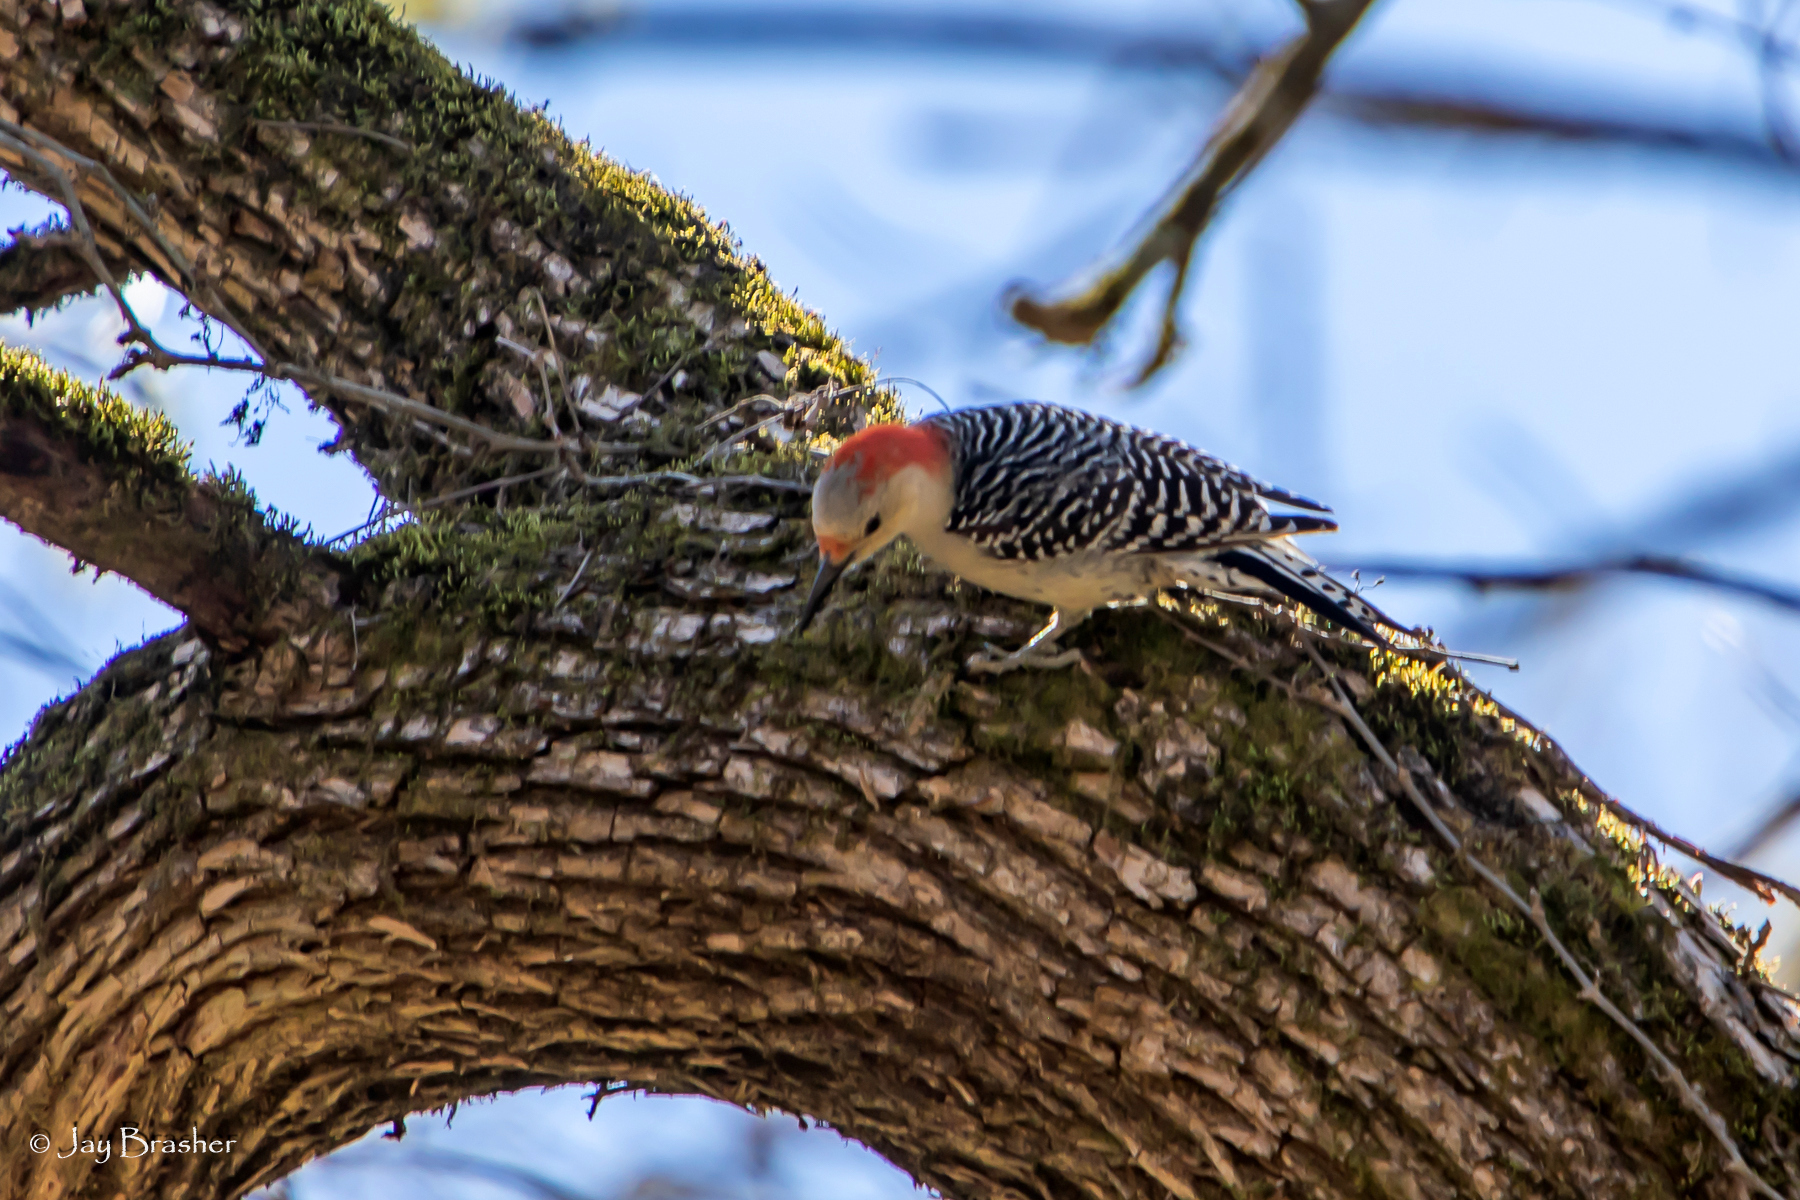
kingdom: Animalia
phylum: Chordata
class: Aves
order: Piciformes
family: Picidae
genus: Melanerpes
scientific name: Melanerpes carolinus
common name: Red-bellied woodpecker
